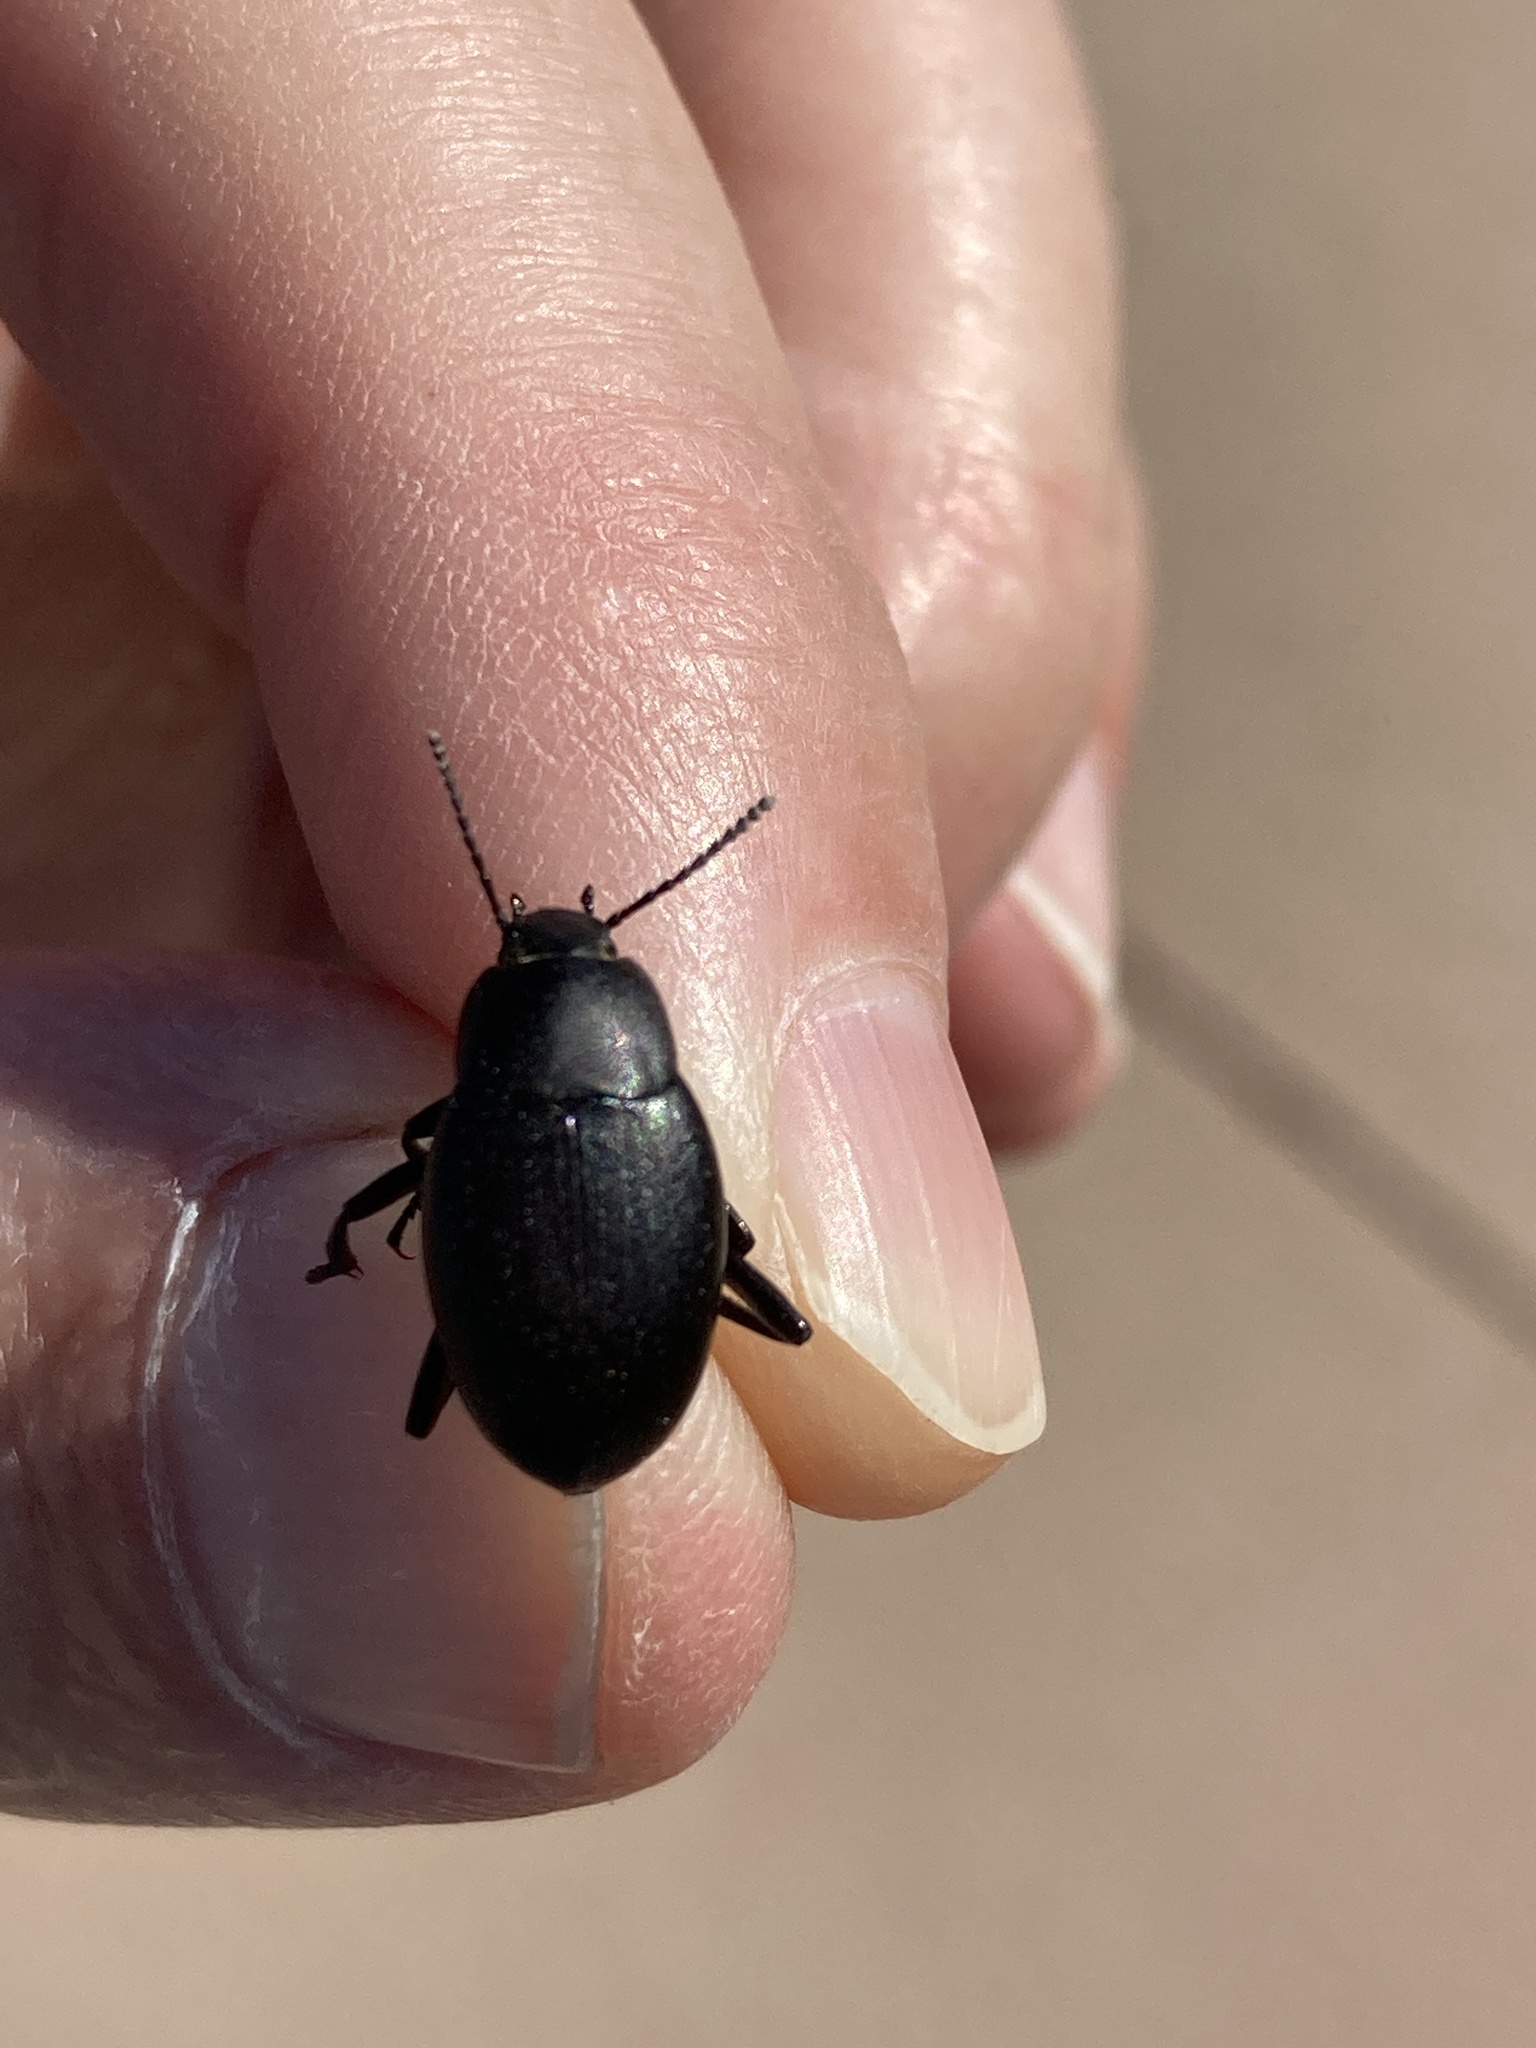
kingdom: Animalia
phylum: Arthropoda
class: Insecta
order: Coleoptera
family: Tenebrionidae
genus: Eleodes
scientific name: Eleodes fusiformis
